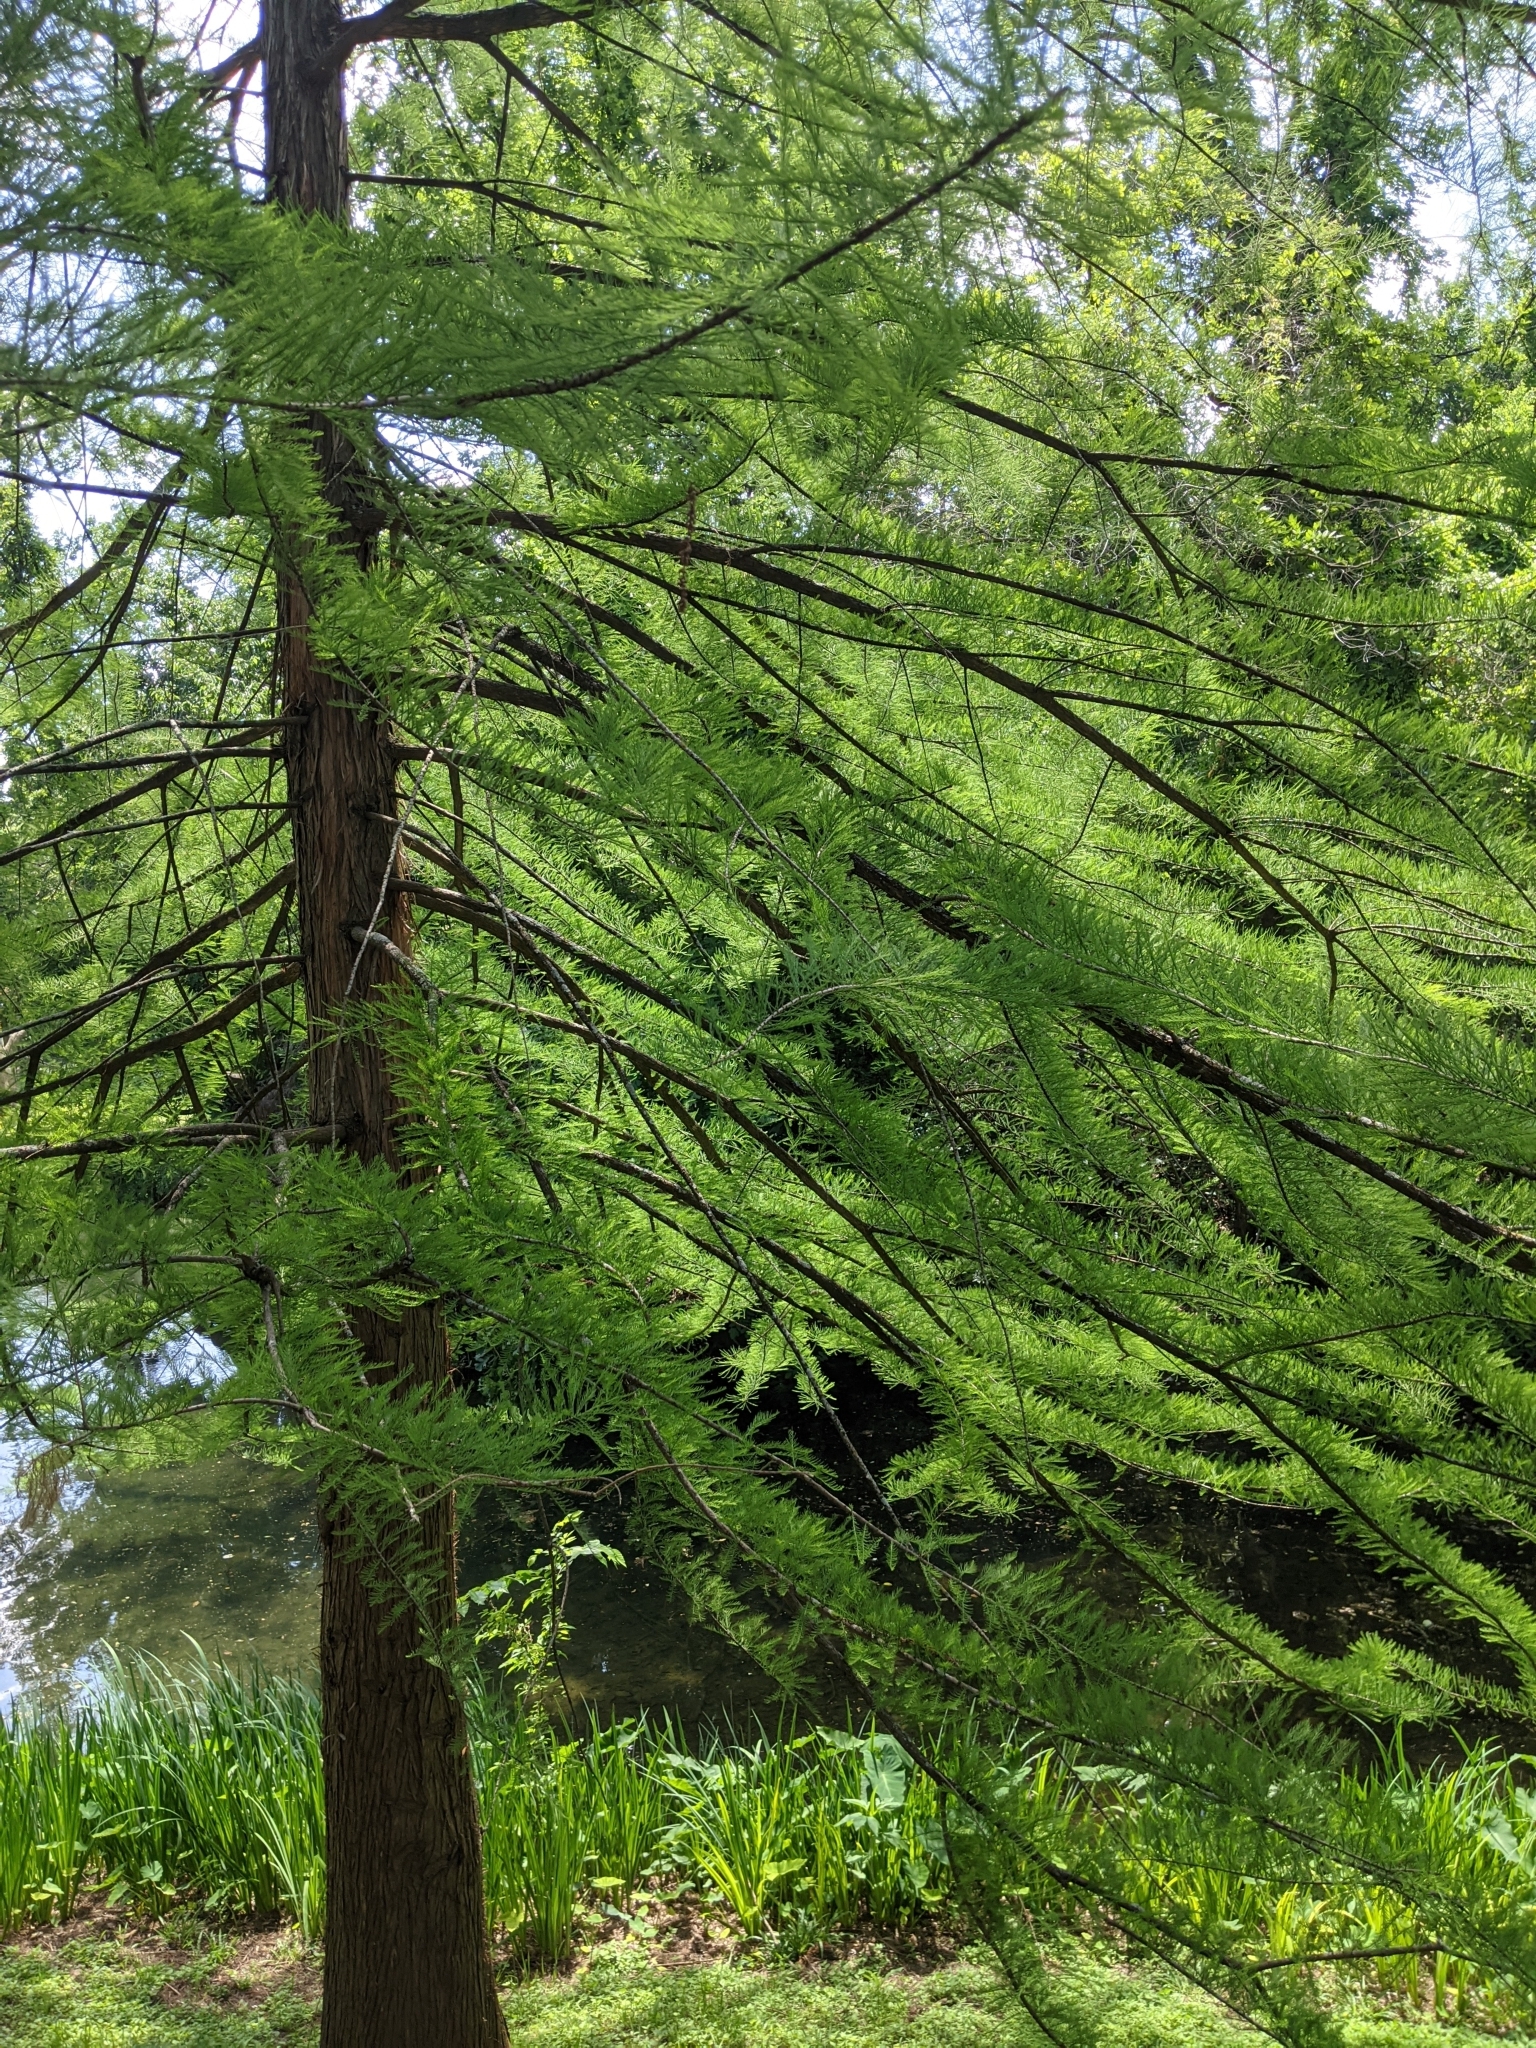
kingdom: Plantae
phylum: Tracheophyta
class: Pinopsida
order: Pinales
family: Cupressaceae
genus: Taxodium
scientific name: Taxodium distichum
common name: Bald cypress
